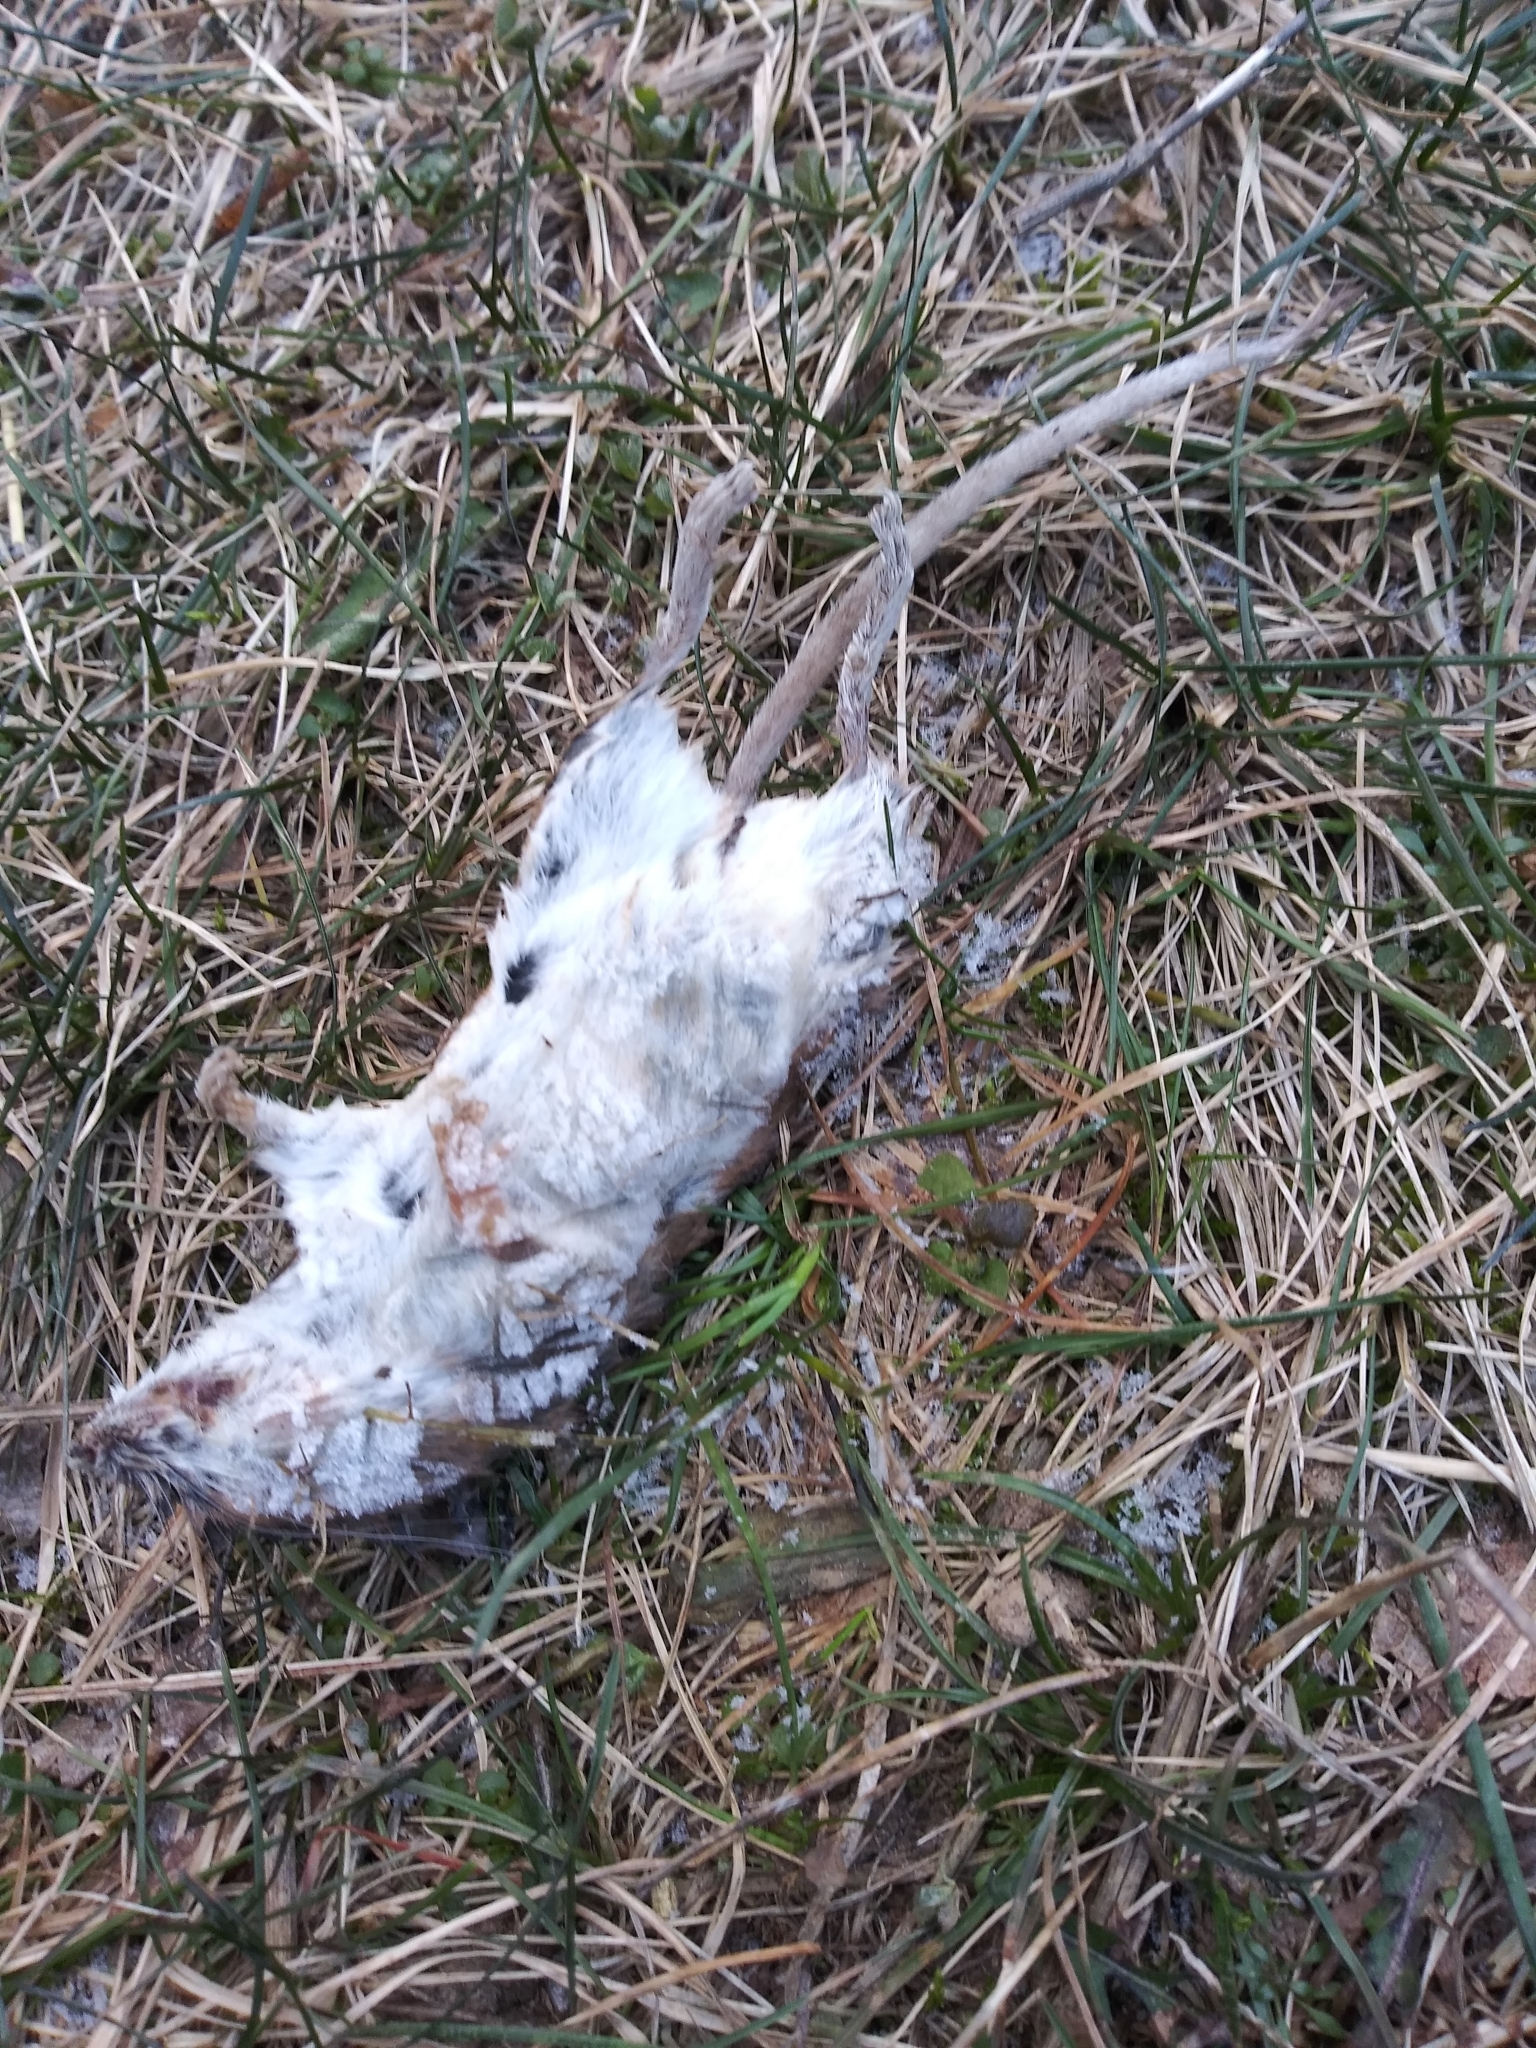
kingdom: Animalia
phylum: Chordata
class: Mammalia
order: Rodentia
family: Cricetidae
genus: Peromyscus
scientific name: Peromyscus leucopus
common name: White-footed deermouse
